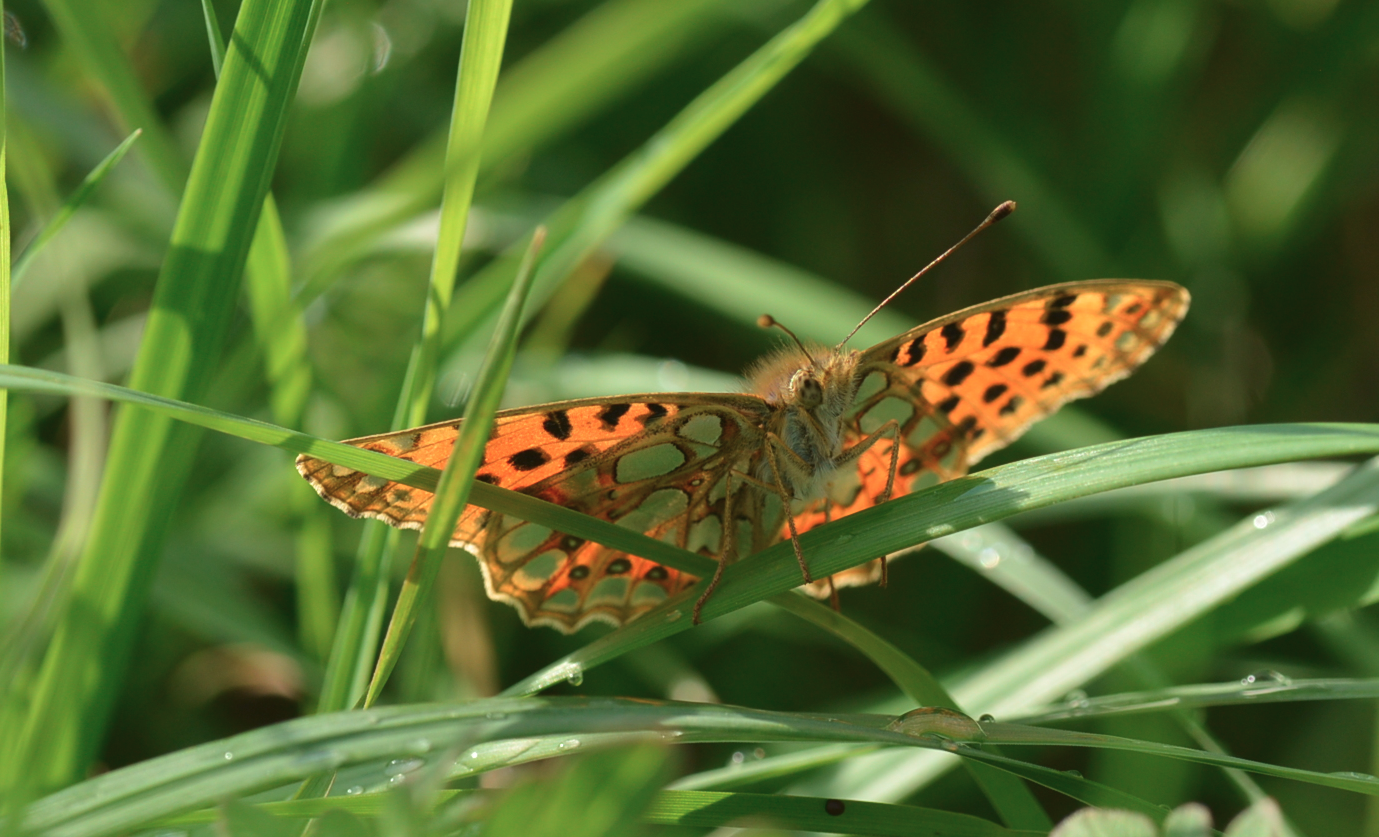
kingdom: Animalia
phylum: Arthropoda
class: Insecta
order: Lepidoptera
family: Nymphalidae
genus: Issoria
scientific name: Issoria lathonia
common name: Queen of spain fritillary
